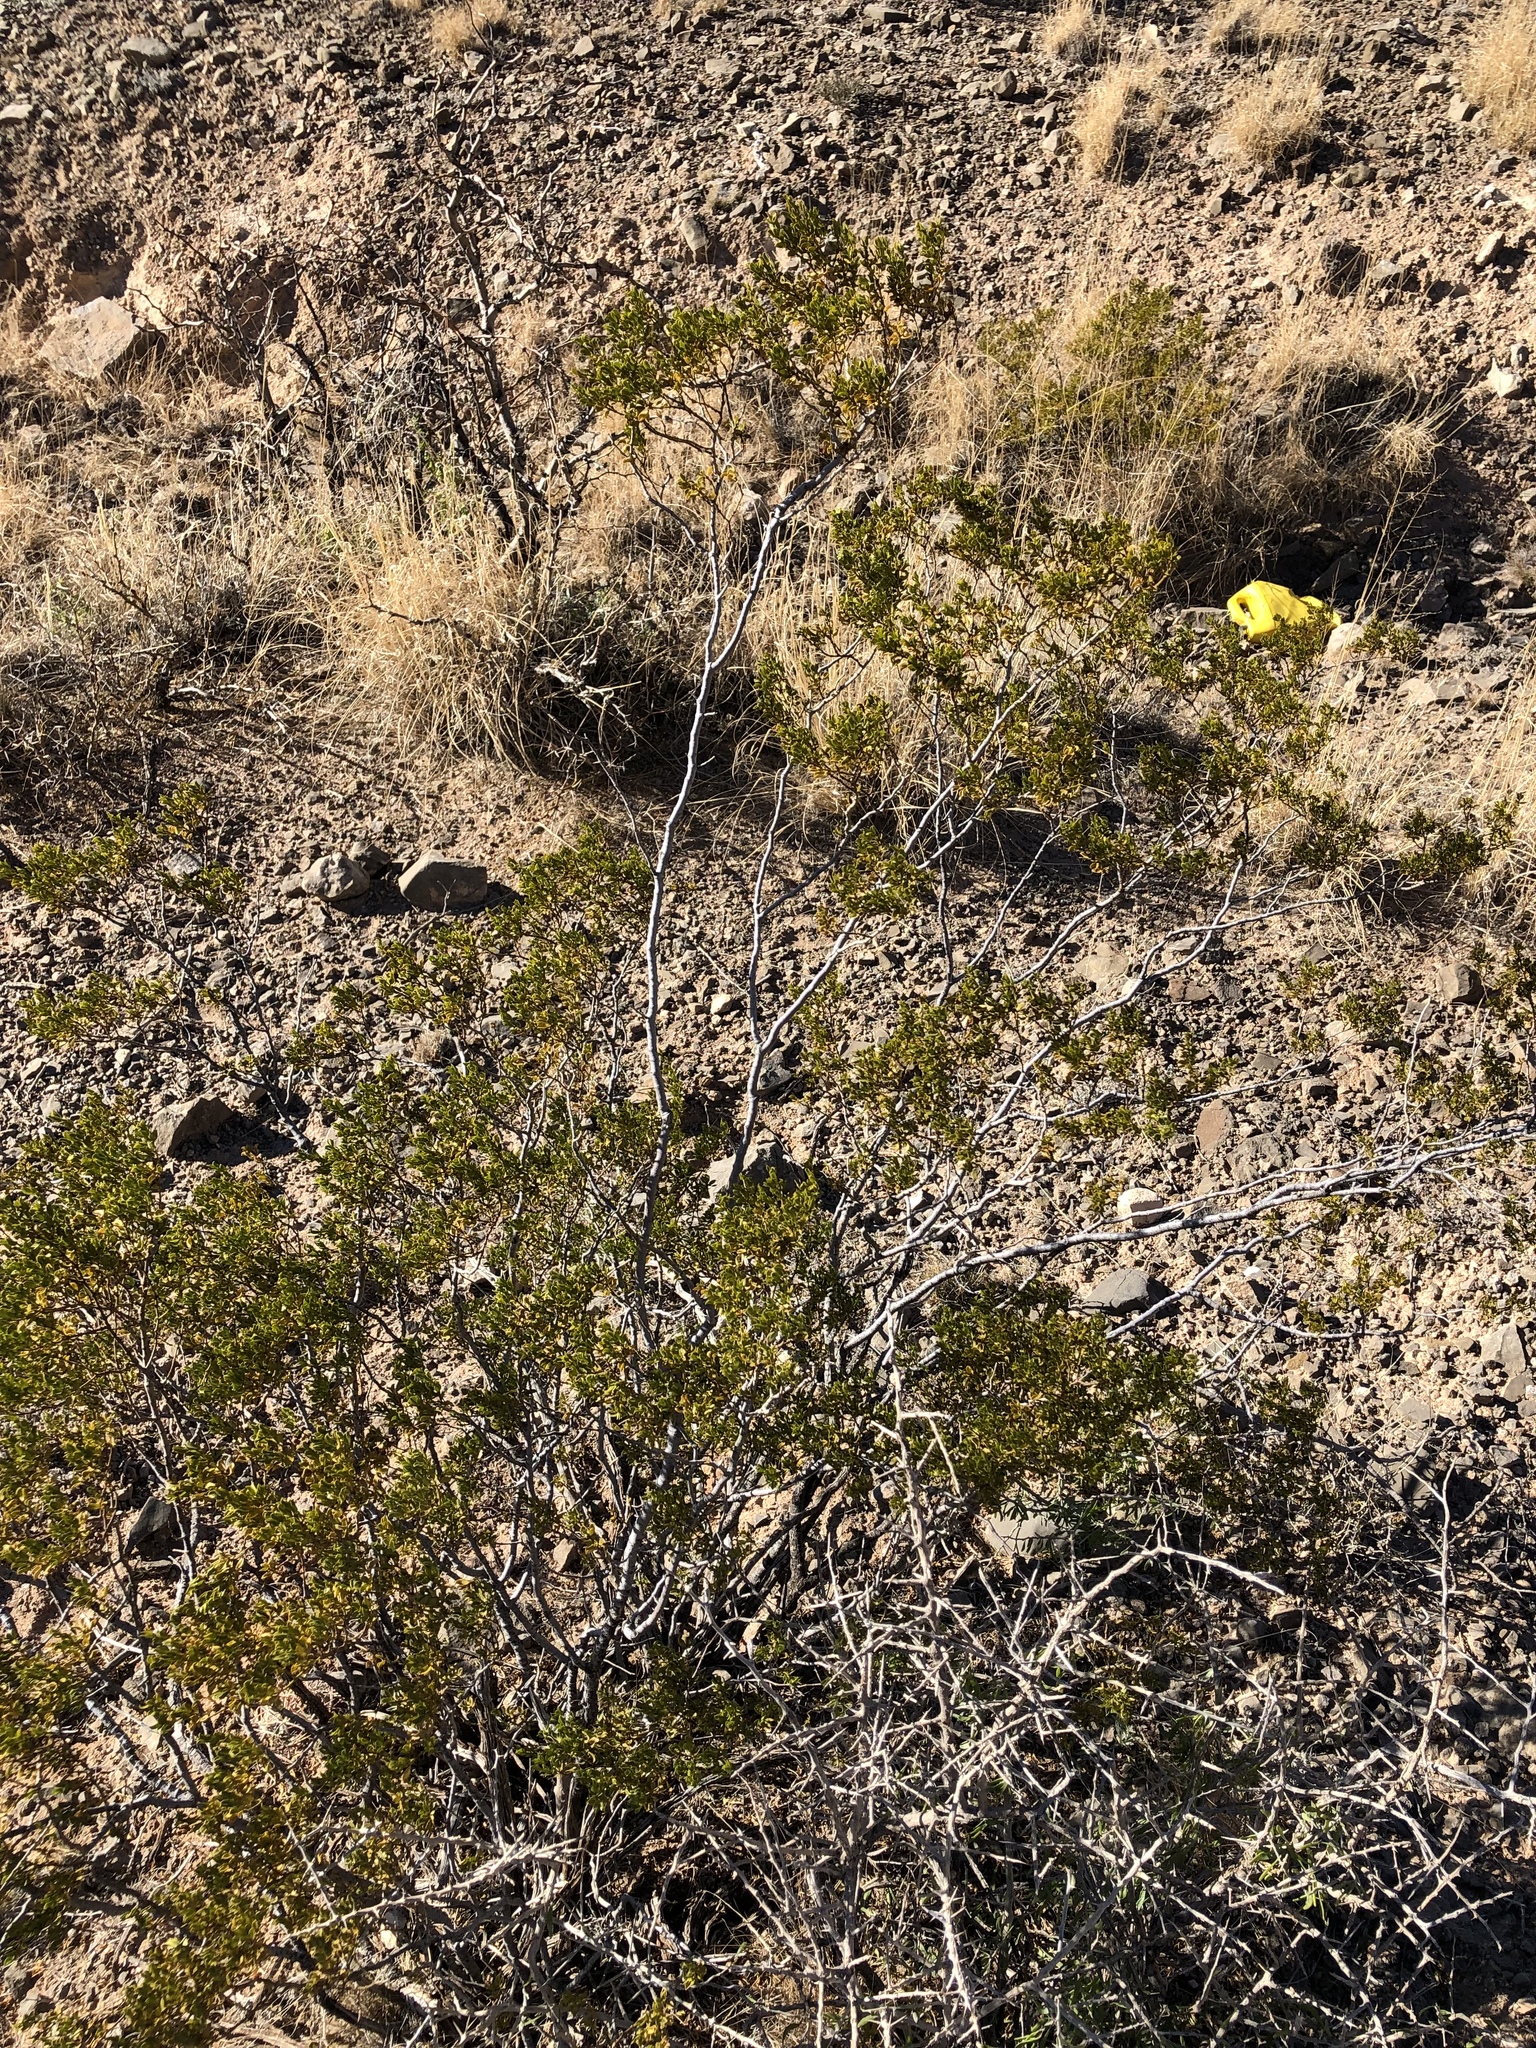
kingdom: Plantae
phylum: Tracheophyta
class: Magnoliopsida
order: Zygophyllales
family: Zygophyllaceae
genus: Larrea
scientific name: Larrea tridentata
